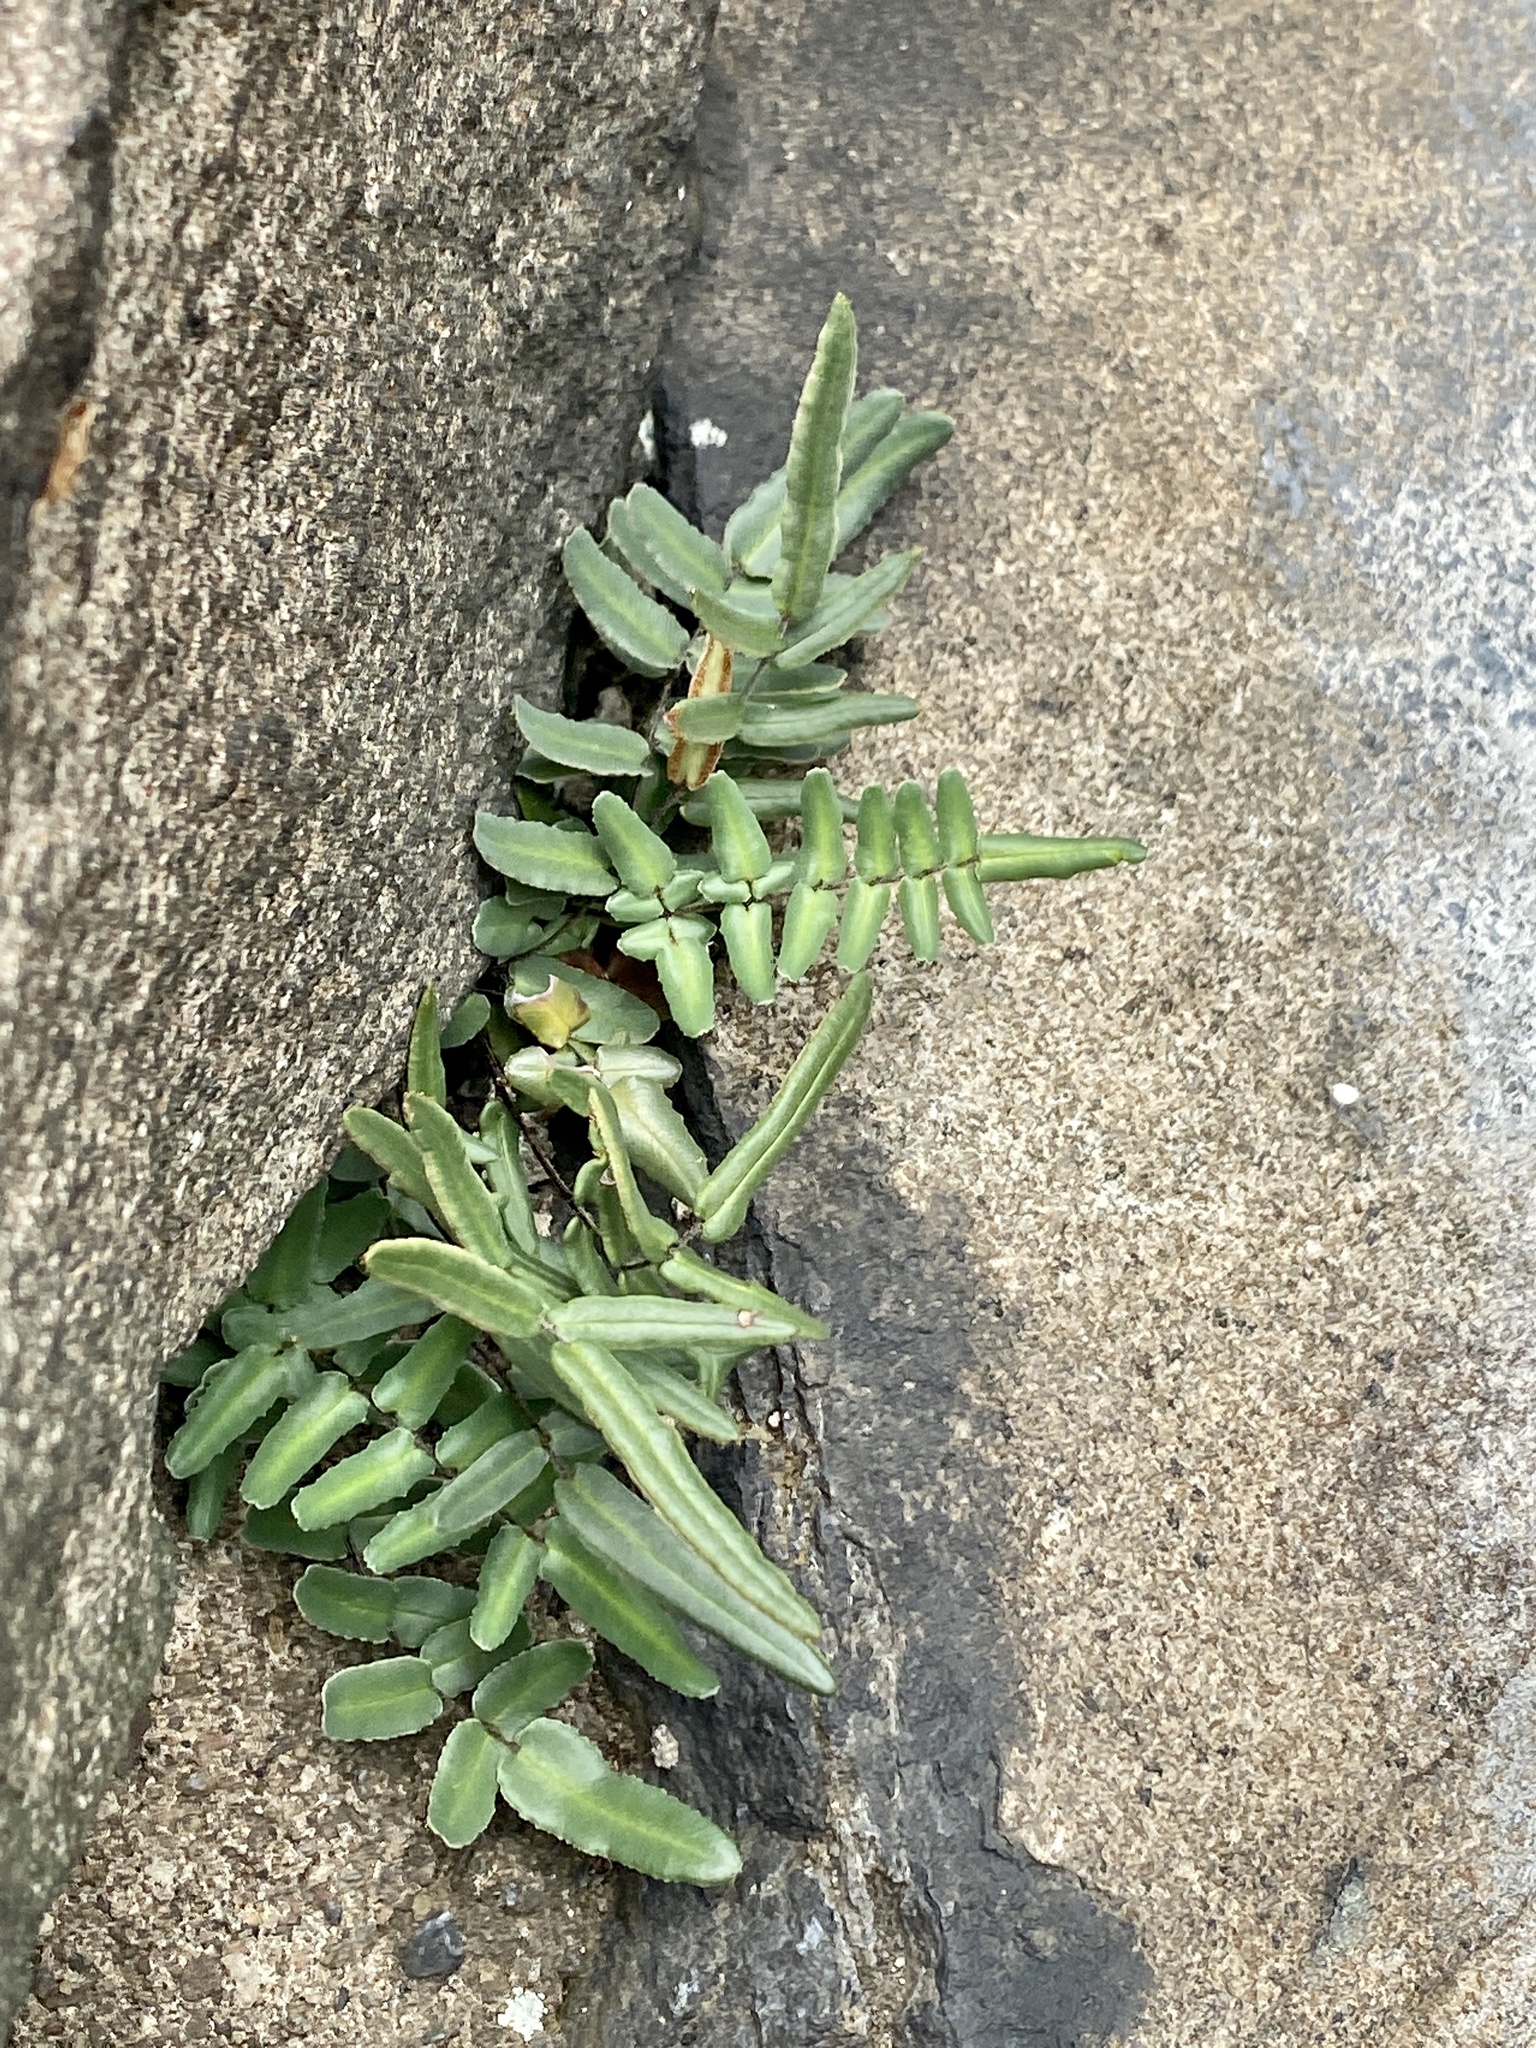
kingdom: Plantae
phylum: Tracheophyta
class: Polypodiopsida
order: Polypodiales
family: Pteridaceae
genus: Pellaea
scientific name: Pellaea atropurpurea
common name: Hairy cliffbrake
